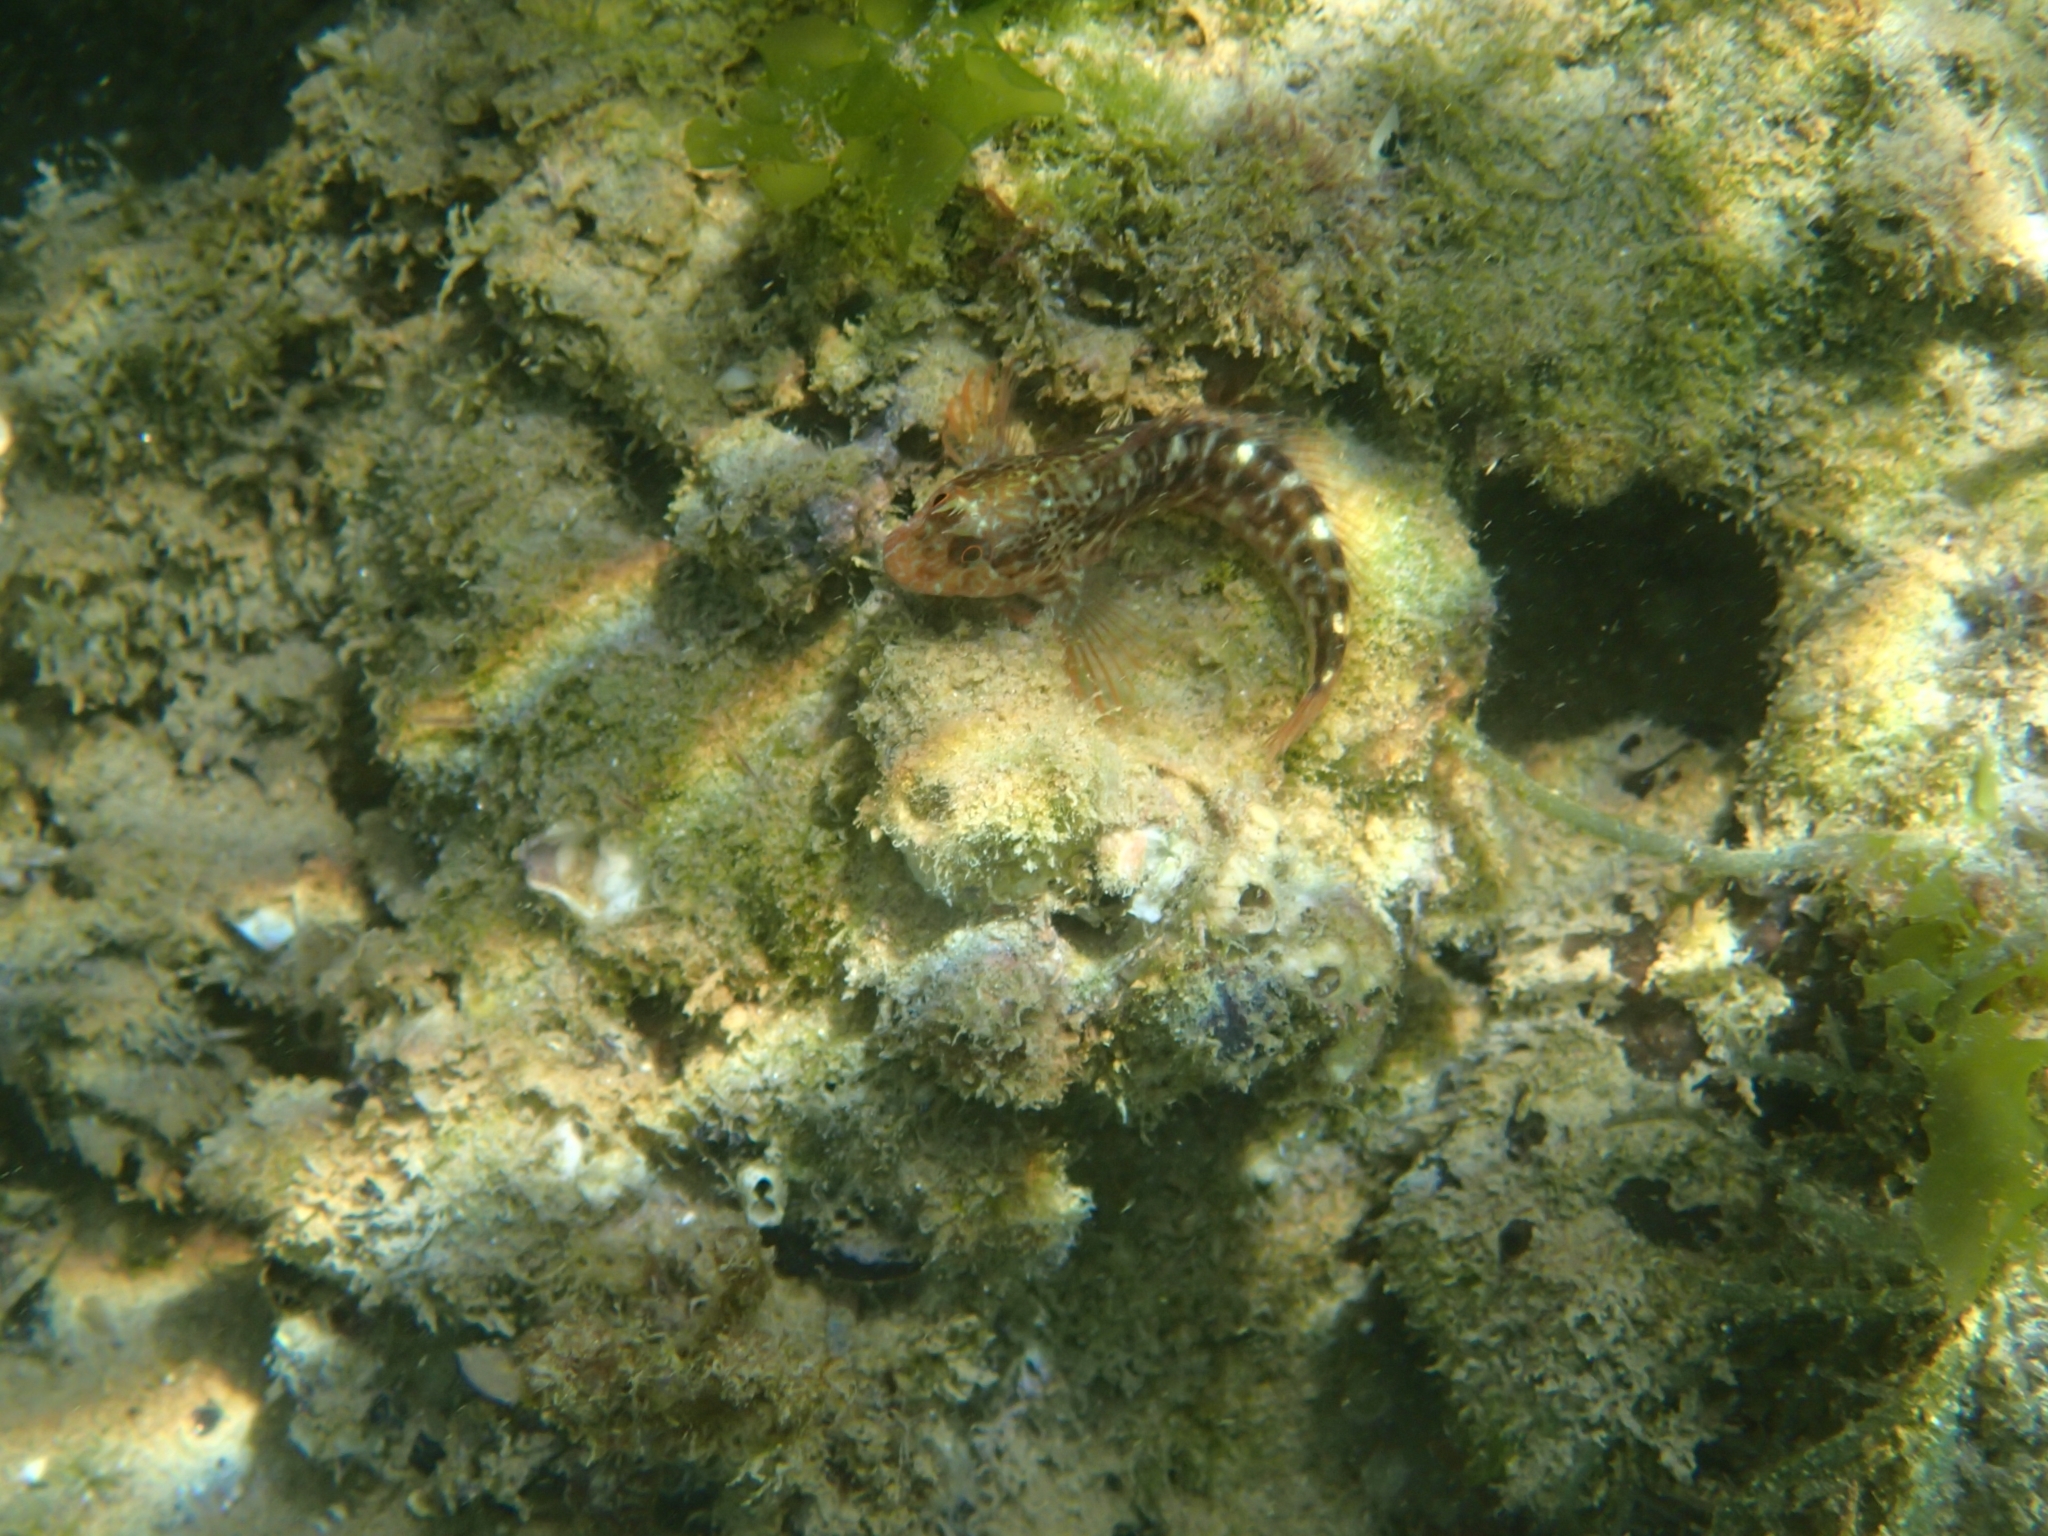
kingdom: Animalia
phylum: Chordata
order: Perciformes
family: Blenniidae
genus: Parablennius
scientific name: Parablennius zvonimiri
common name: Red blenny
